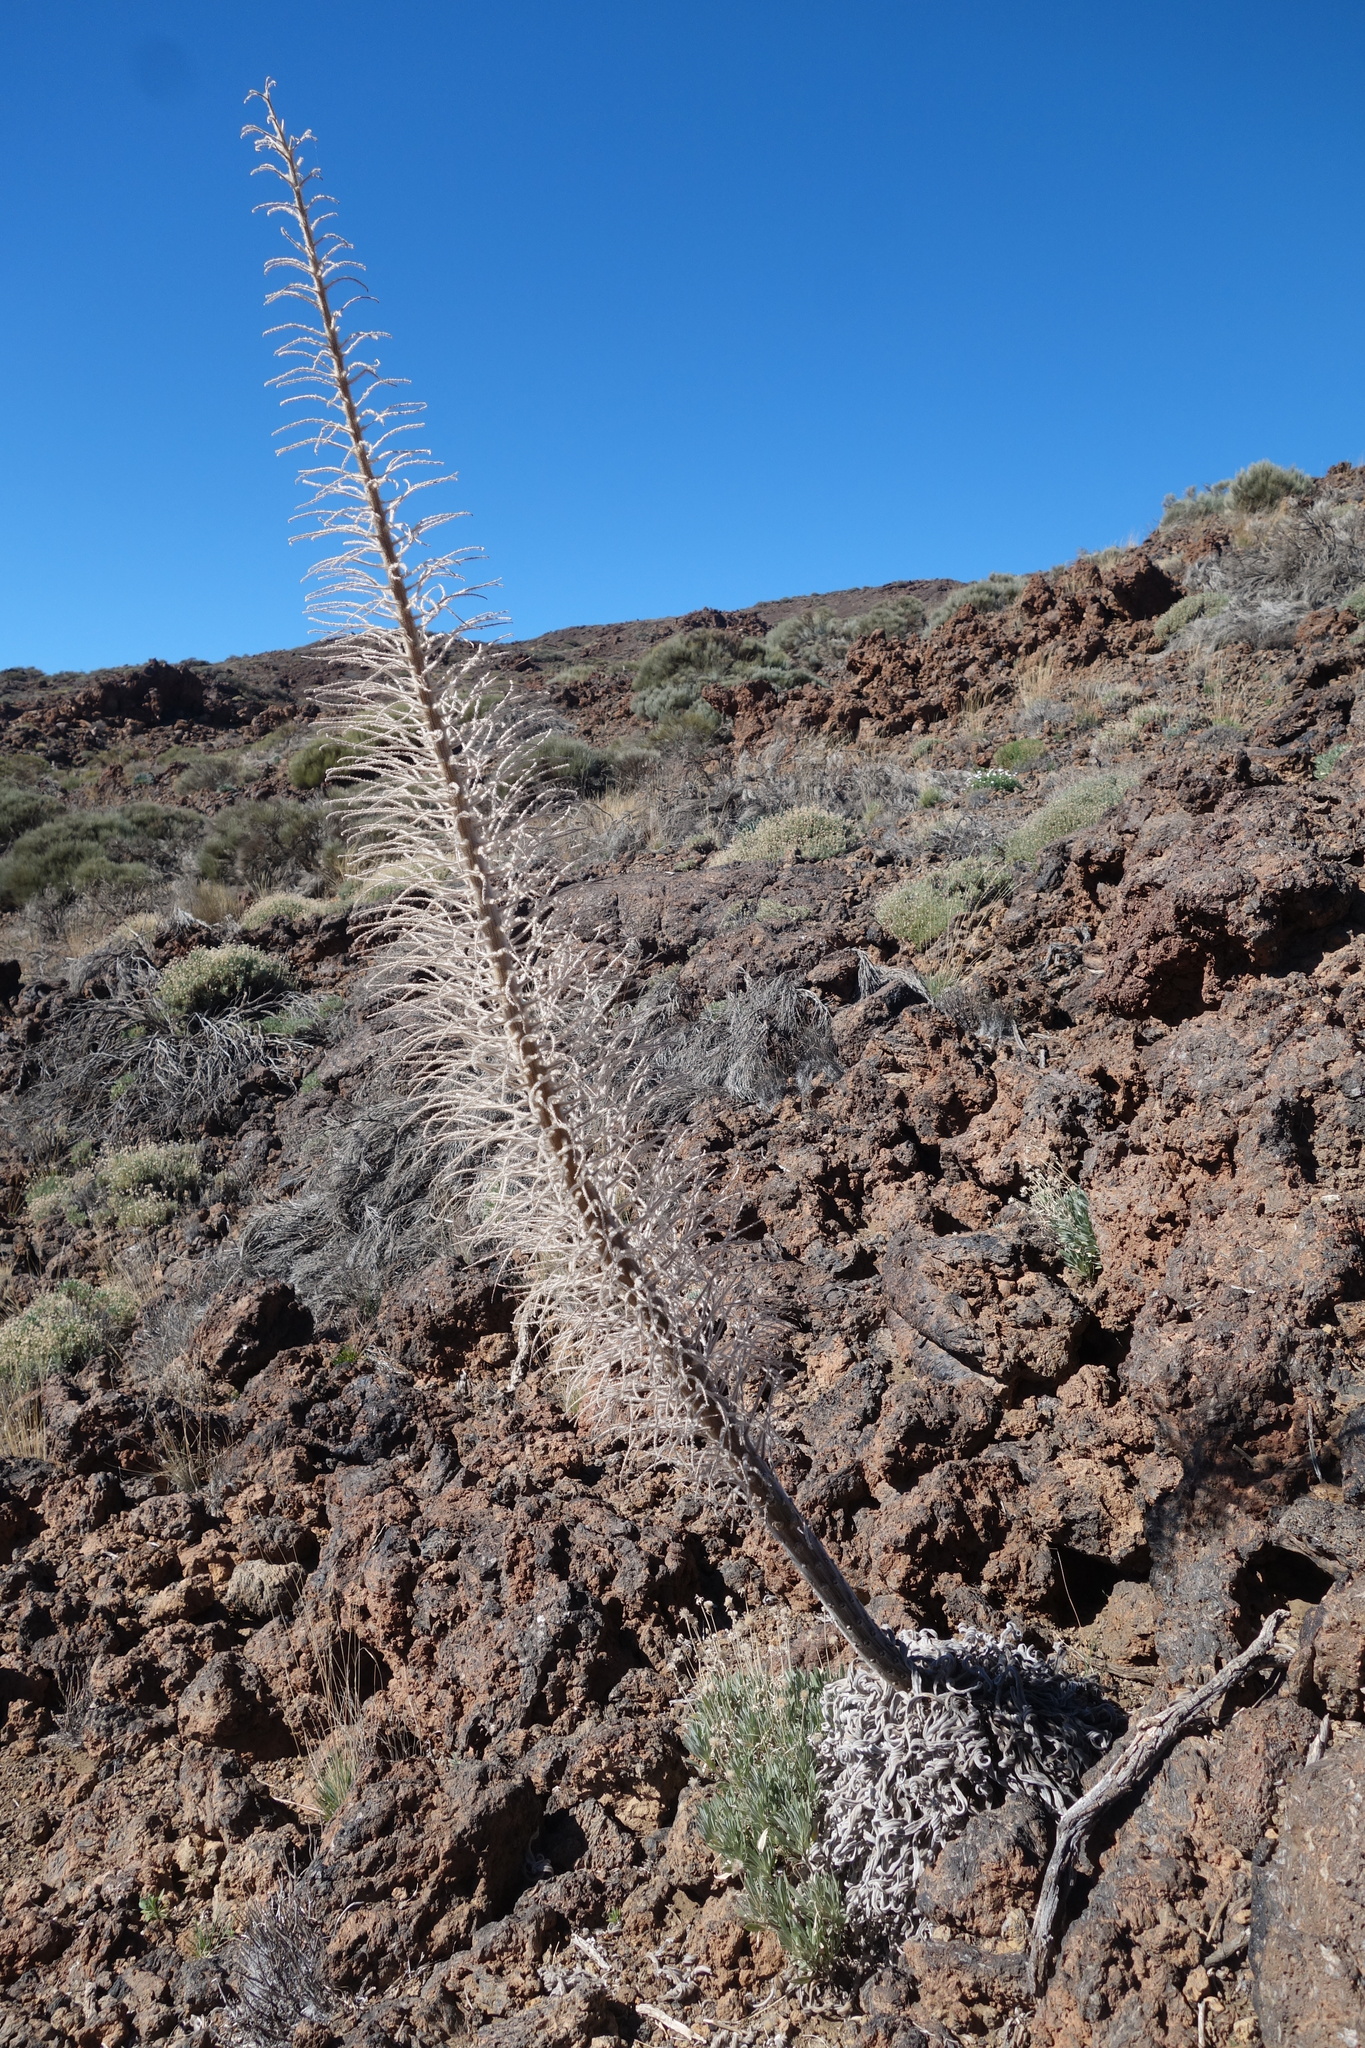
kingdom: Plantae
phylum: Tracheophyta
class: Magnoliopsida
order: Boraginales
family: Boraginaceae
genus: Echium
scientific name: Echium wildpretii
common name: Tower-of-jewels
